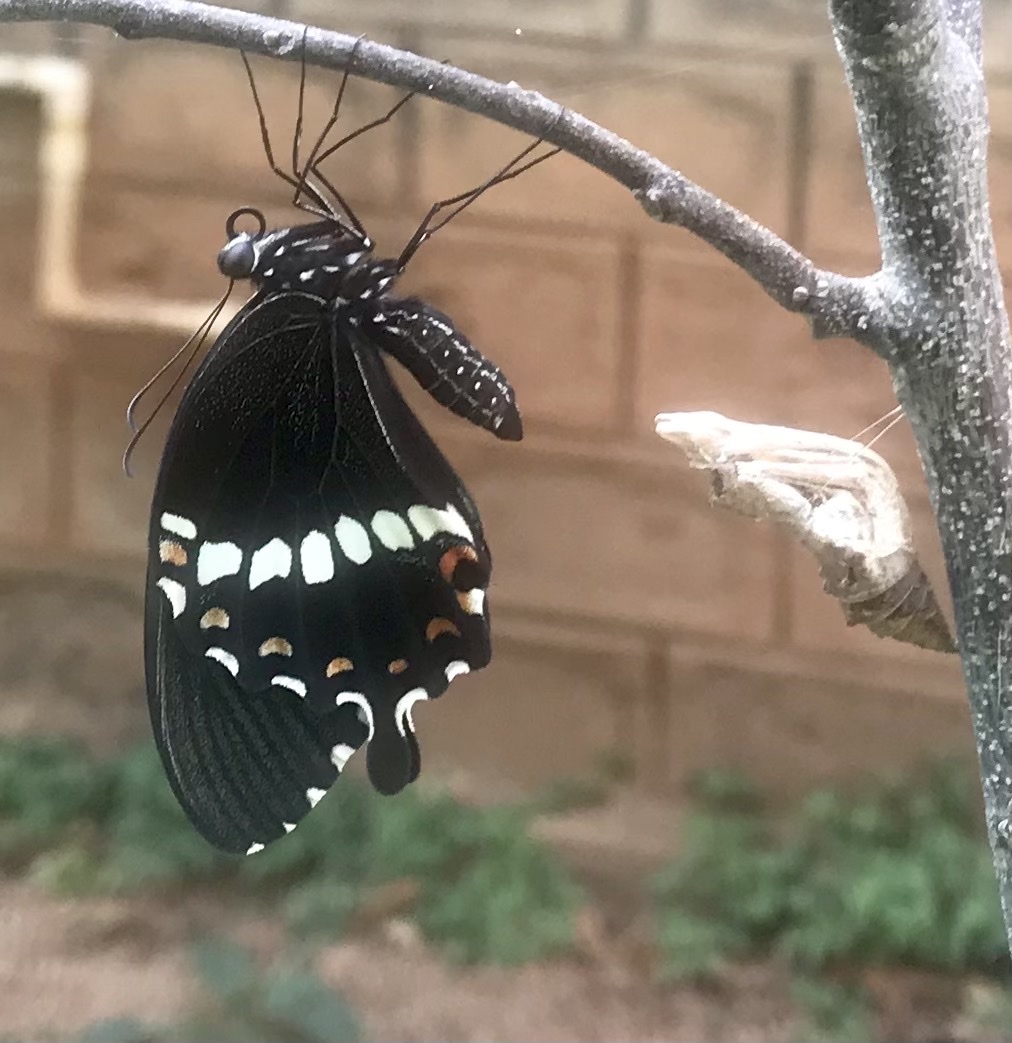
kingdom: Animalia
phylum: Arthropoda
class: Insecta
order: Lepidoptera
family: Papilionidae
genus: Papilio
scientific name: Papilio polytes
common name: Common mormon
